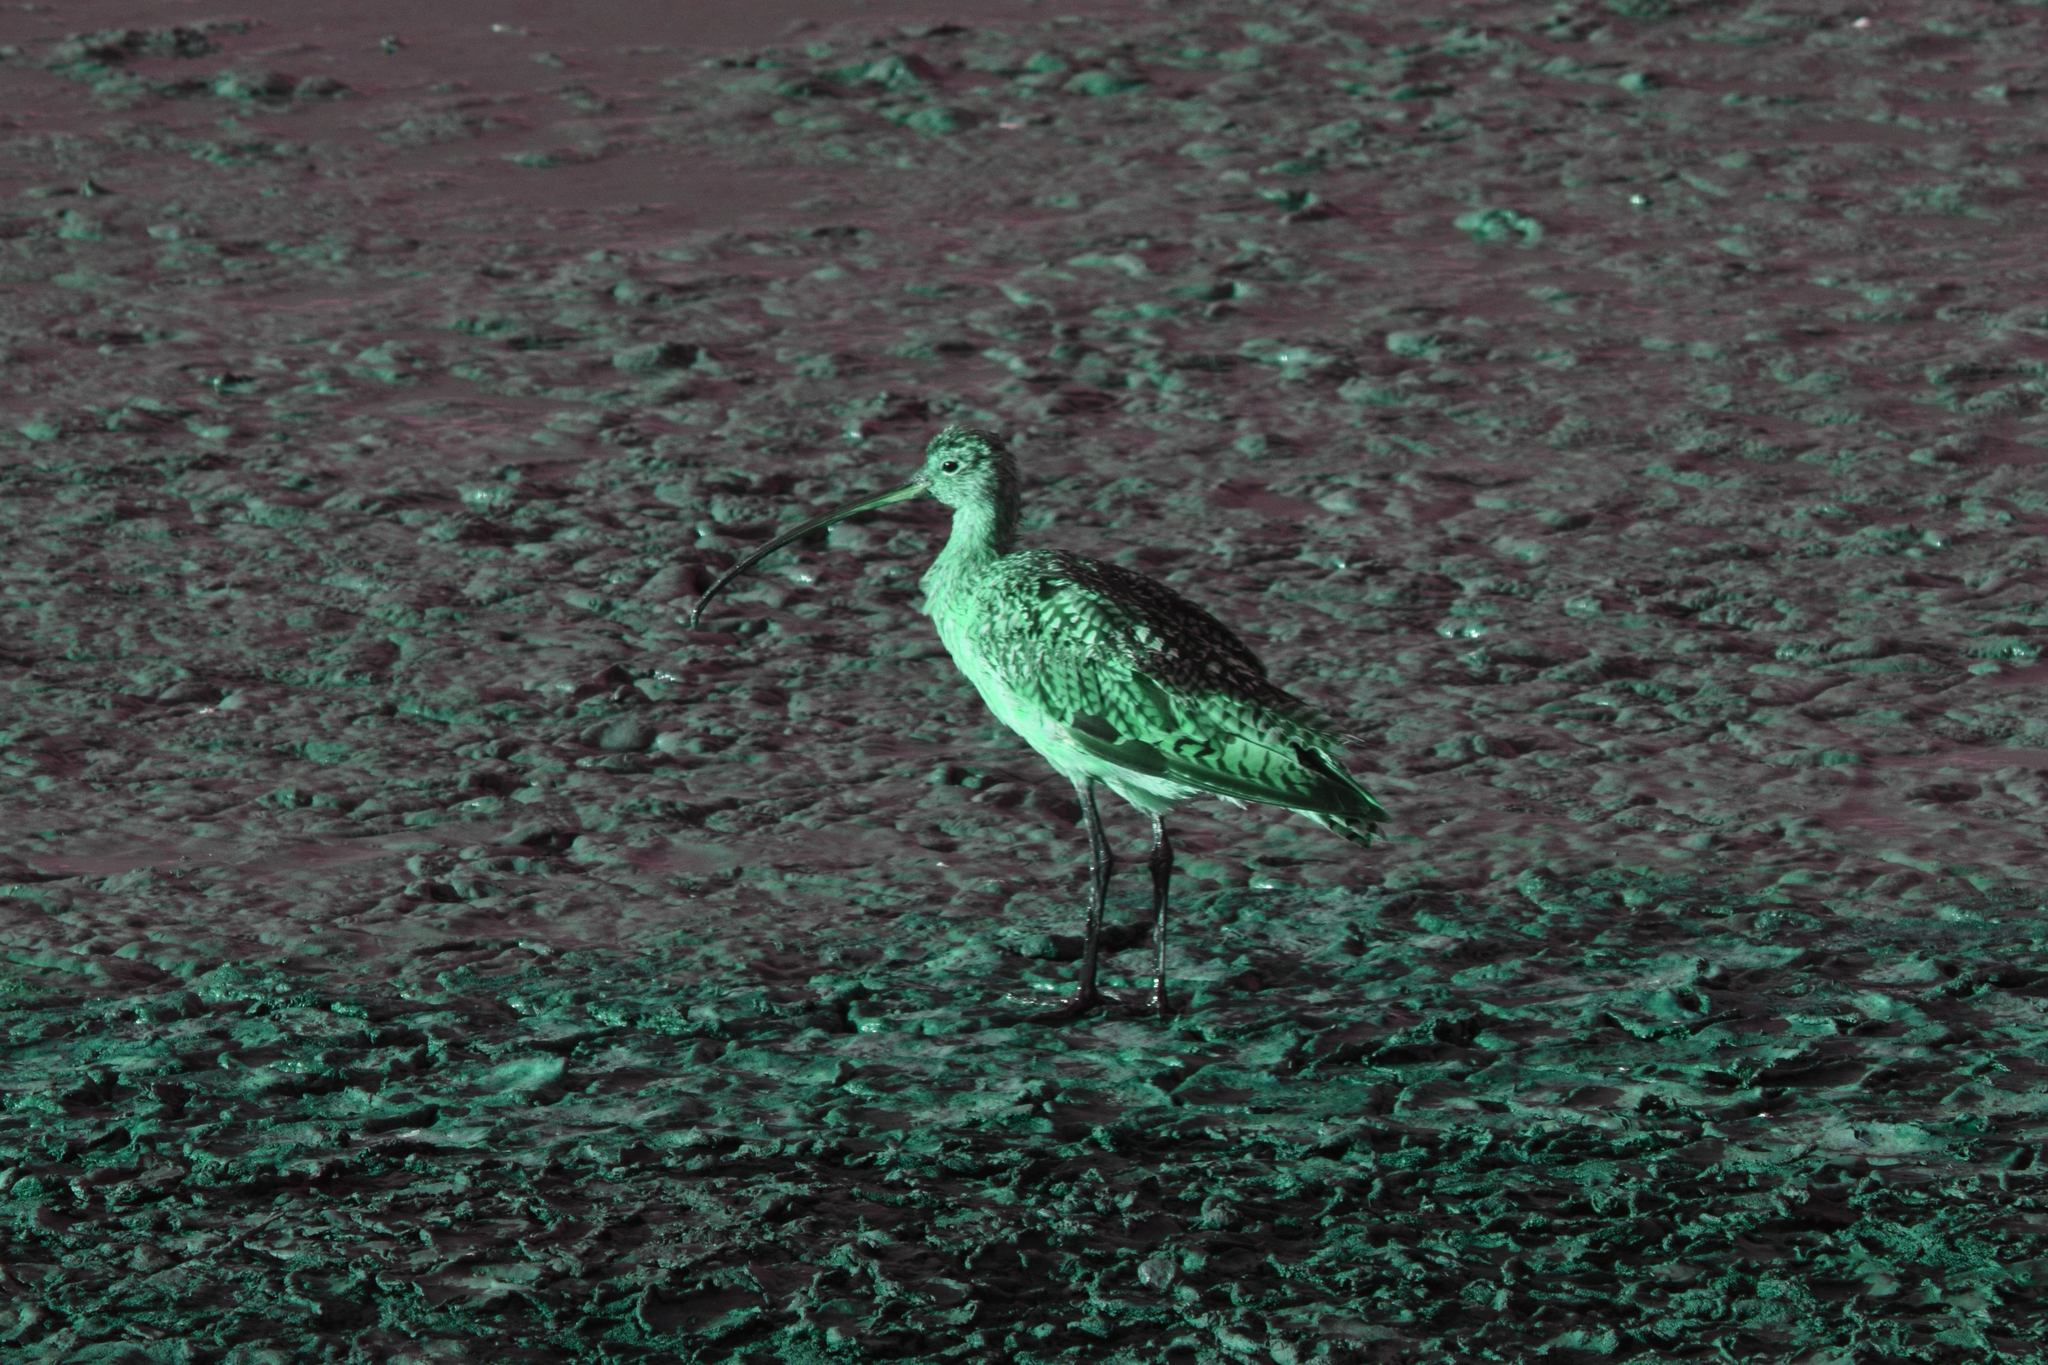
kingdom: Animalia
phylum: Chordata
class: Aves
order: Charadriiformes
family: Scolopacidae
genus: Numenius
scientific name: Numenius americanus
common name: Long-billed curlew
